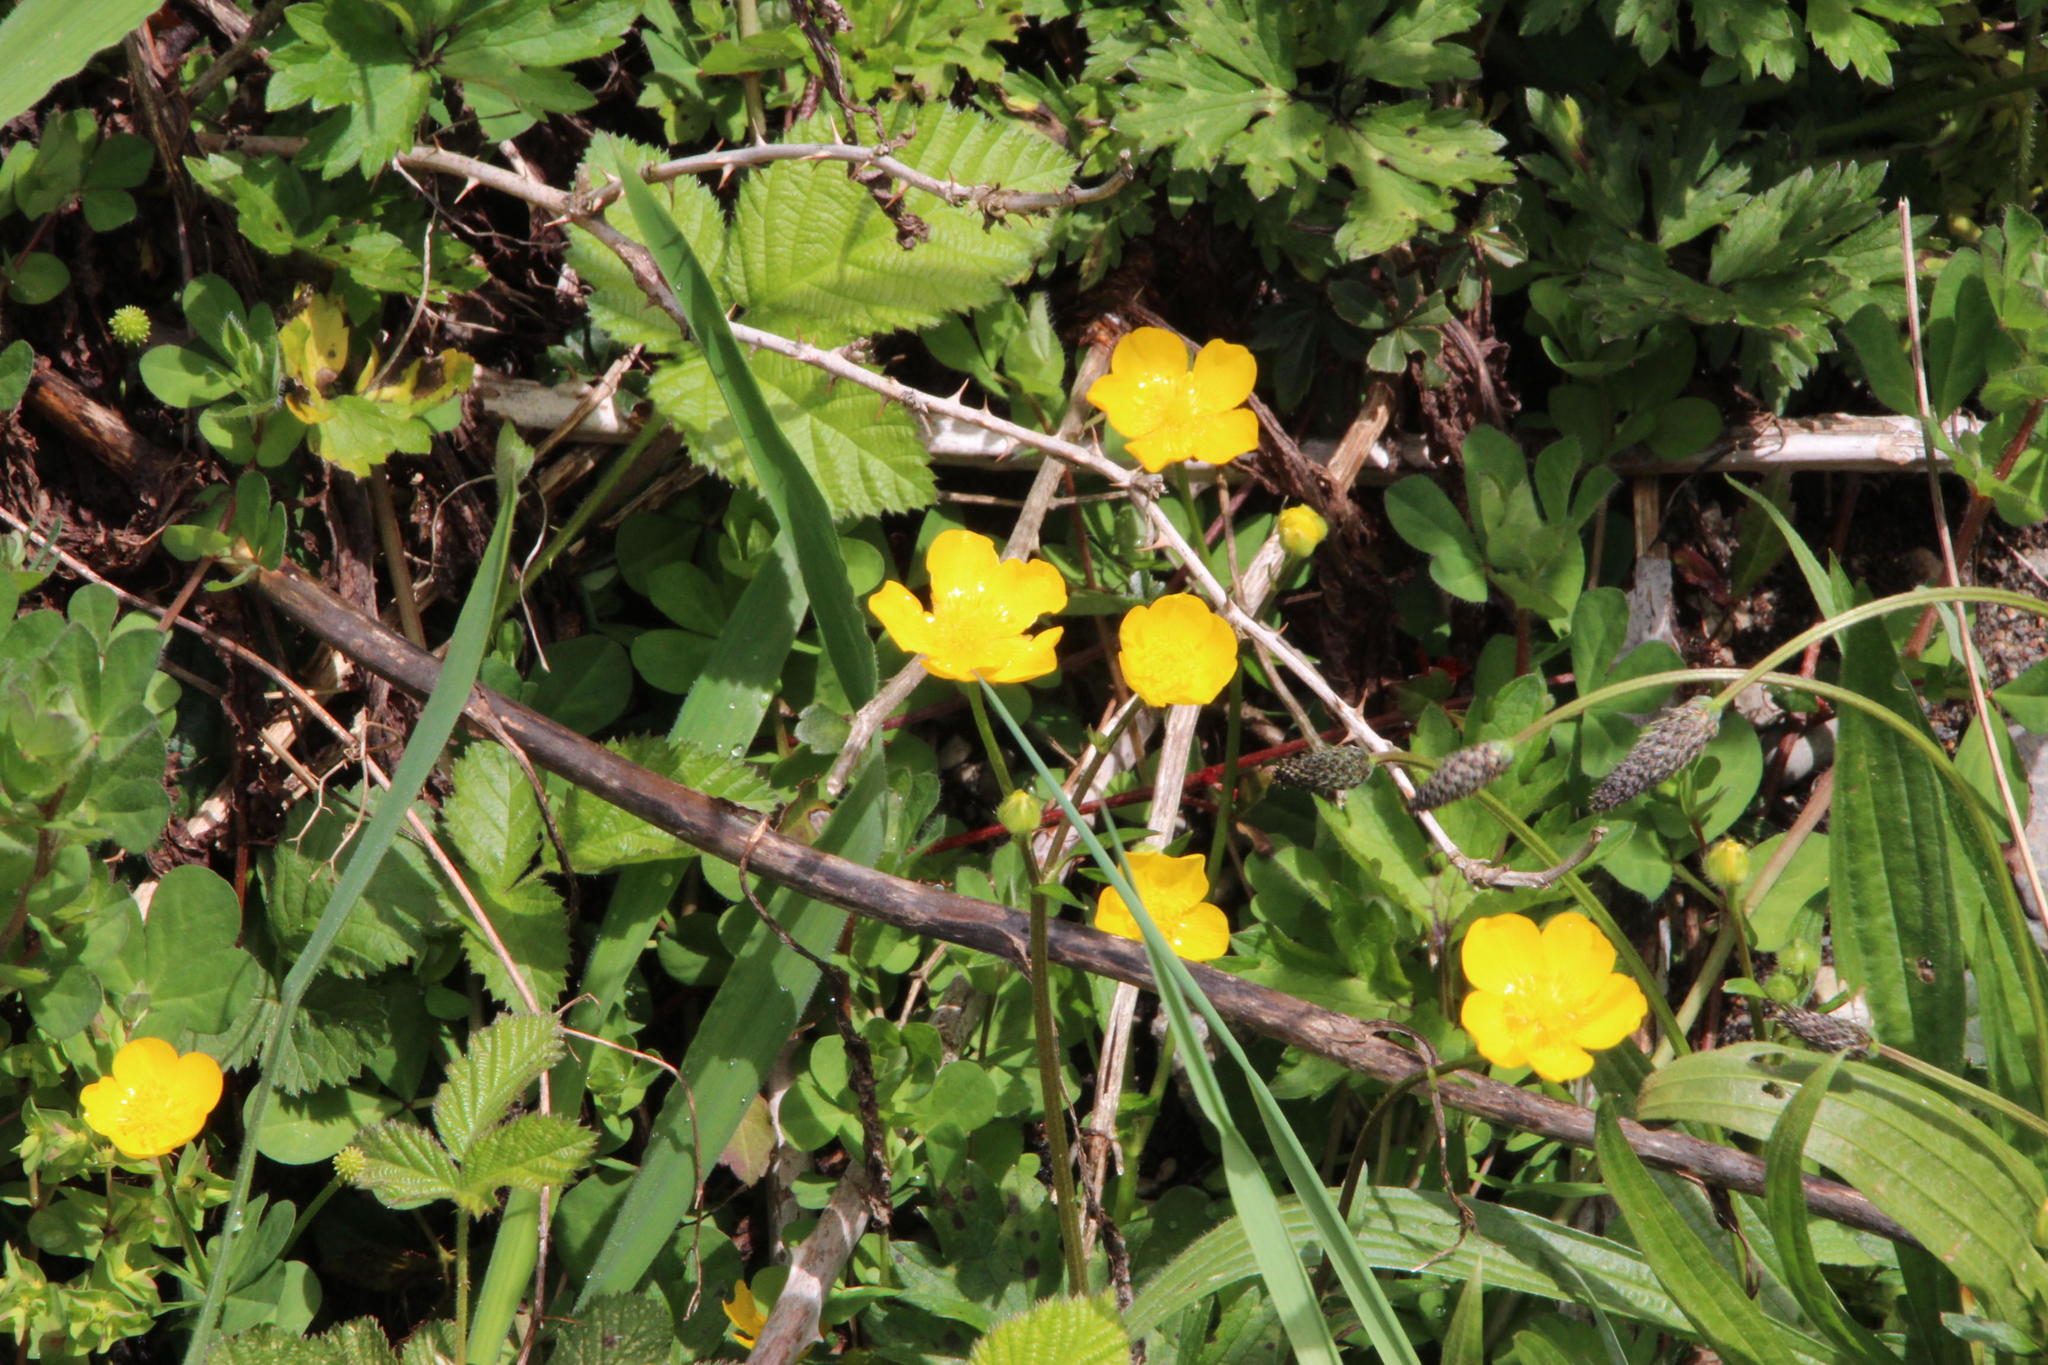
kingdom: Plantae
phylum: Tracheophyta
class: Magnoliopsida
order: Ranunculales
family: Ranunculaceae
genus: Ranunculus
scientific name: Ranunculus repens
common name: Creeping buttercup
